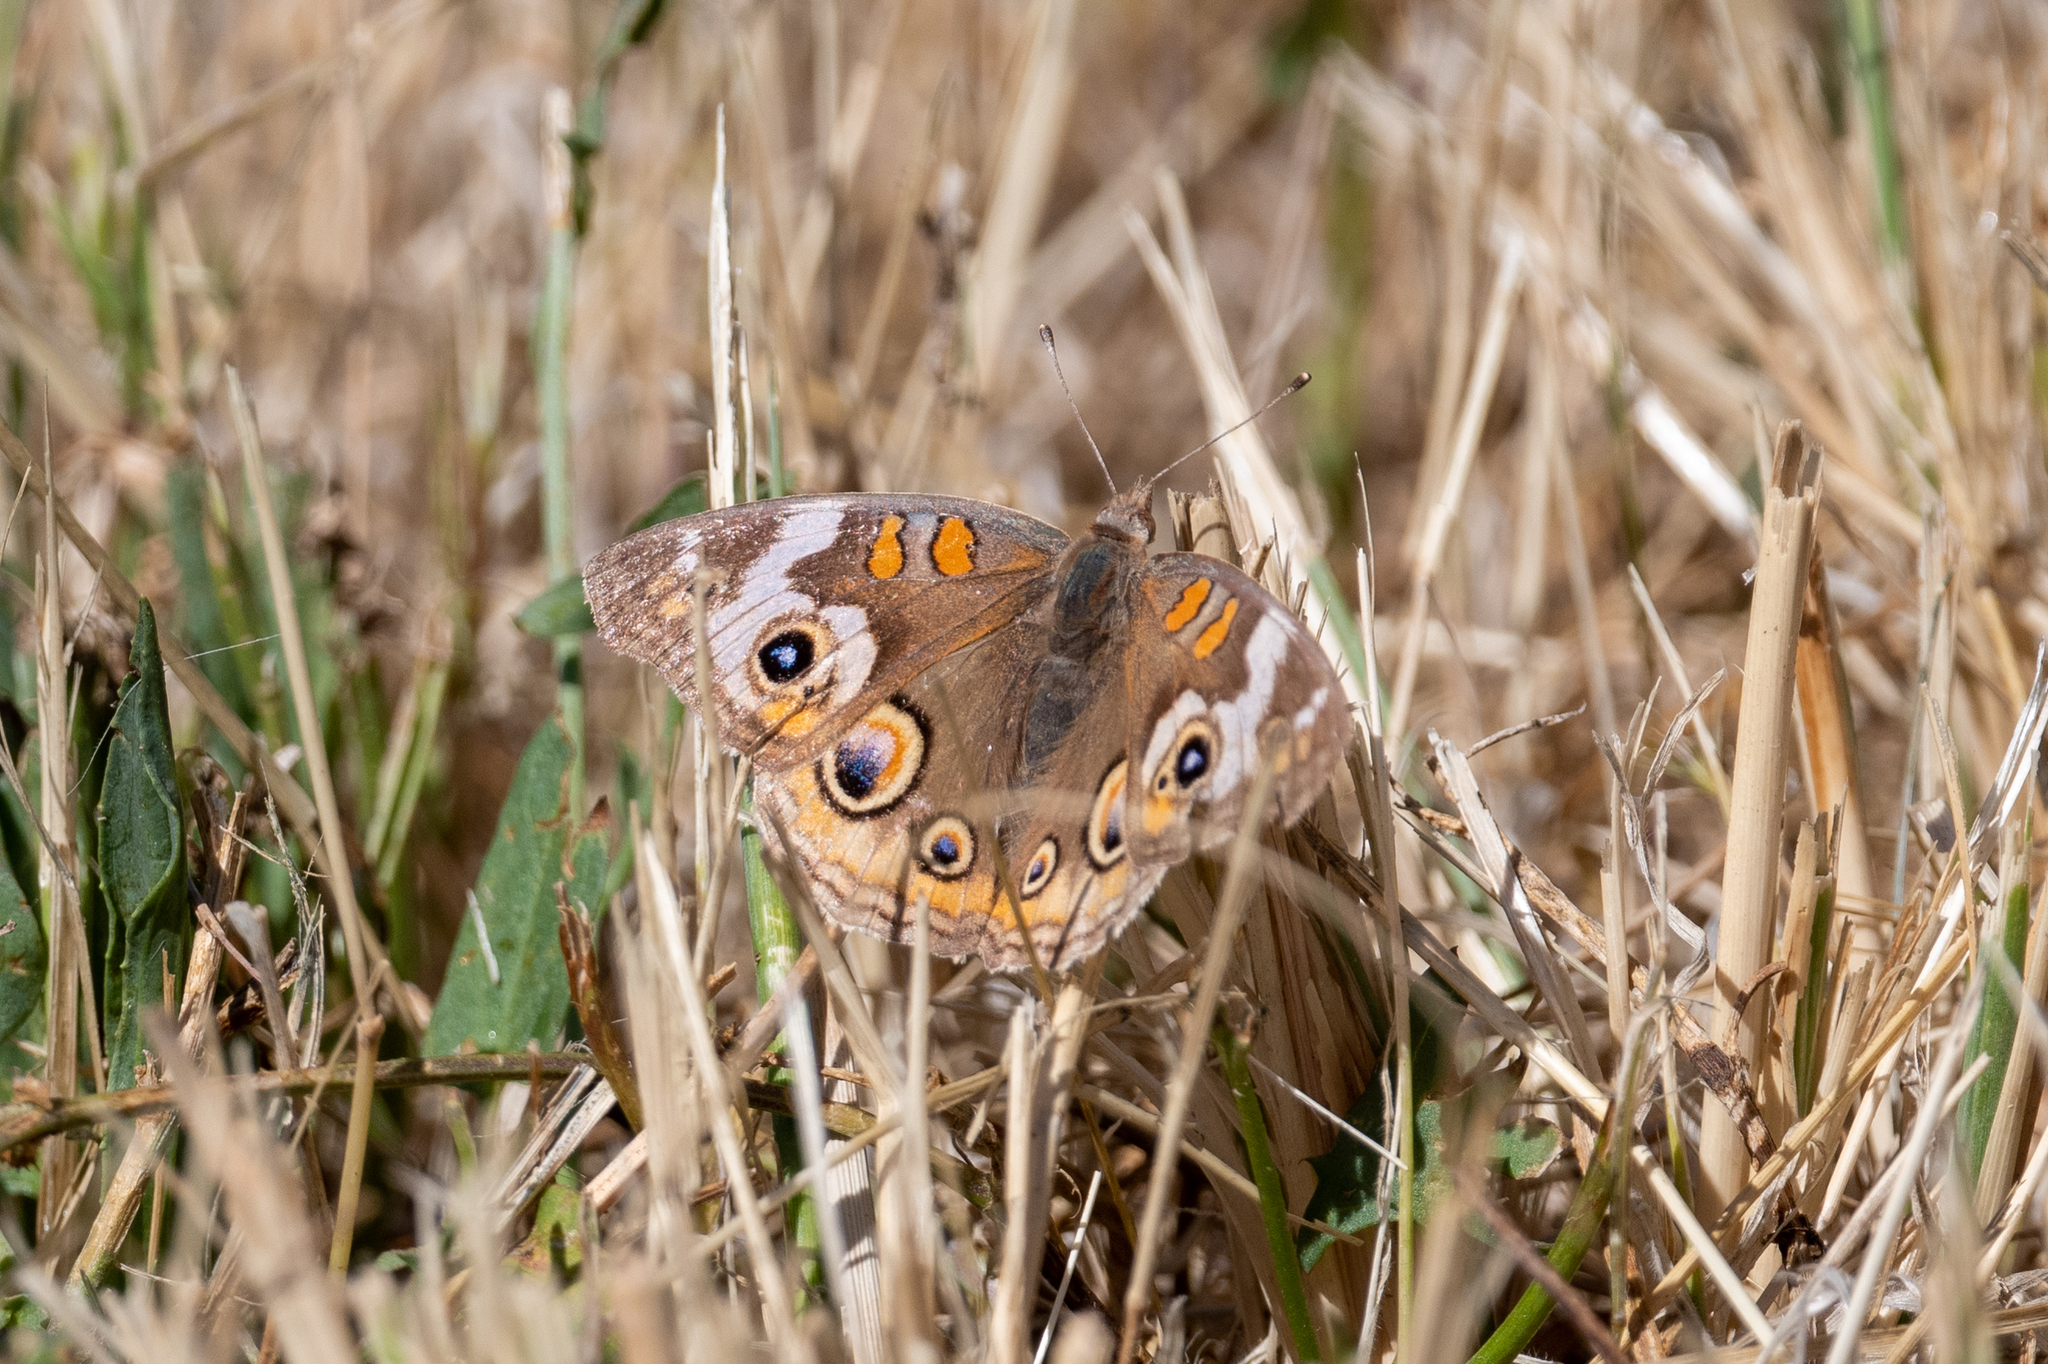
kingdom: Animalia
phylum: Arthropoda
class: Insecta
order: Lepidoptera
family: Nymphalidae
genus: Junonia
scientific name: Junonia grisea
